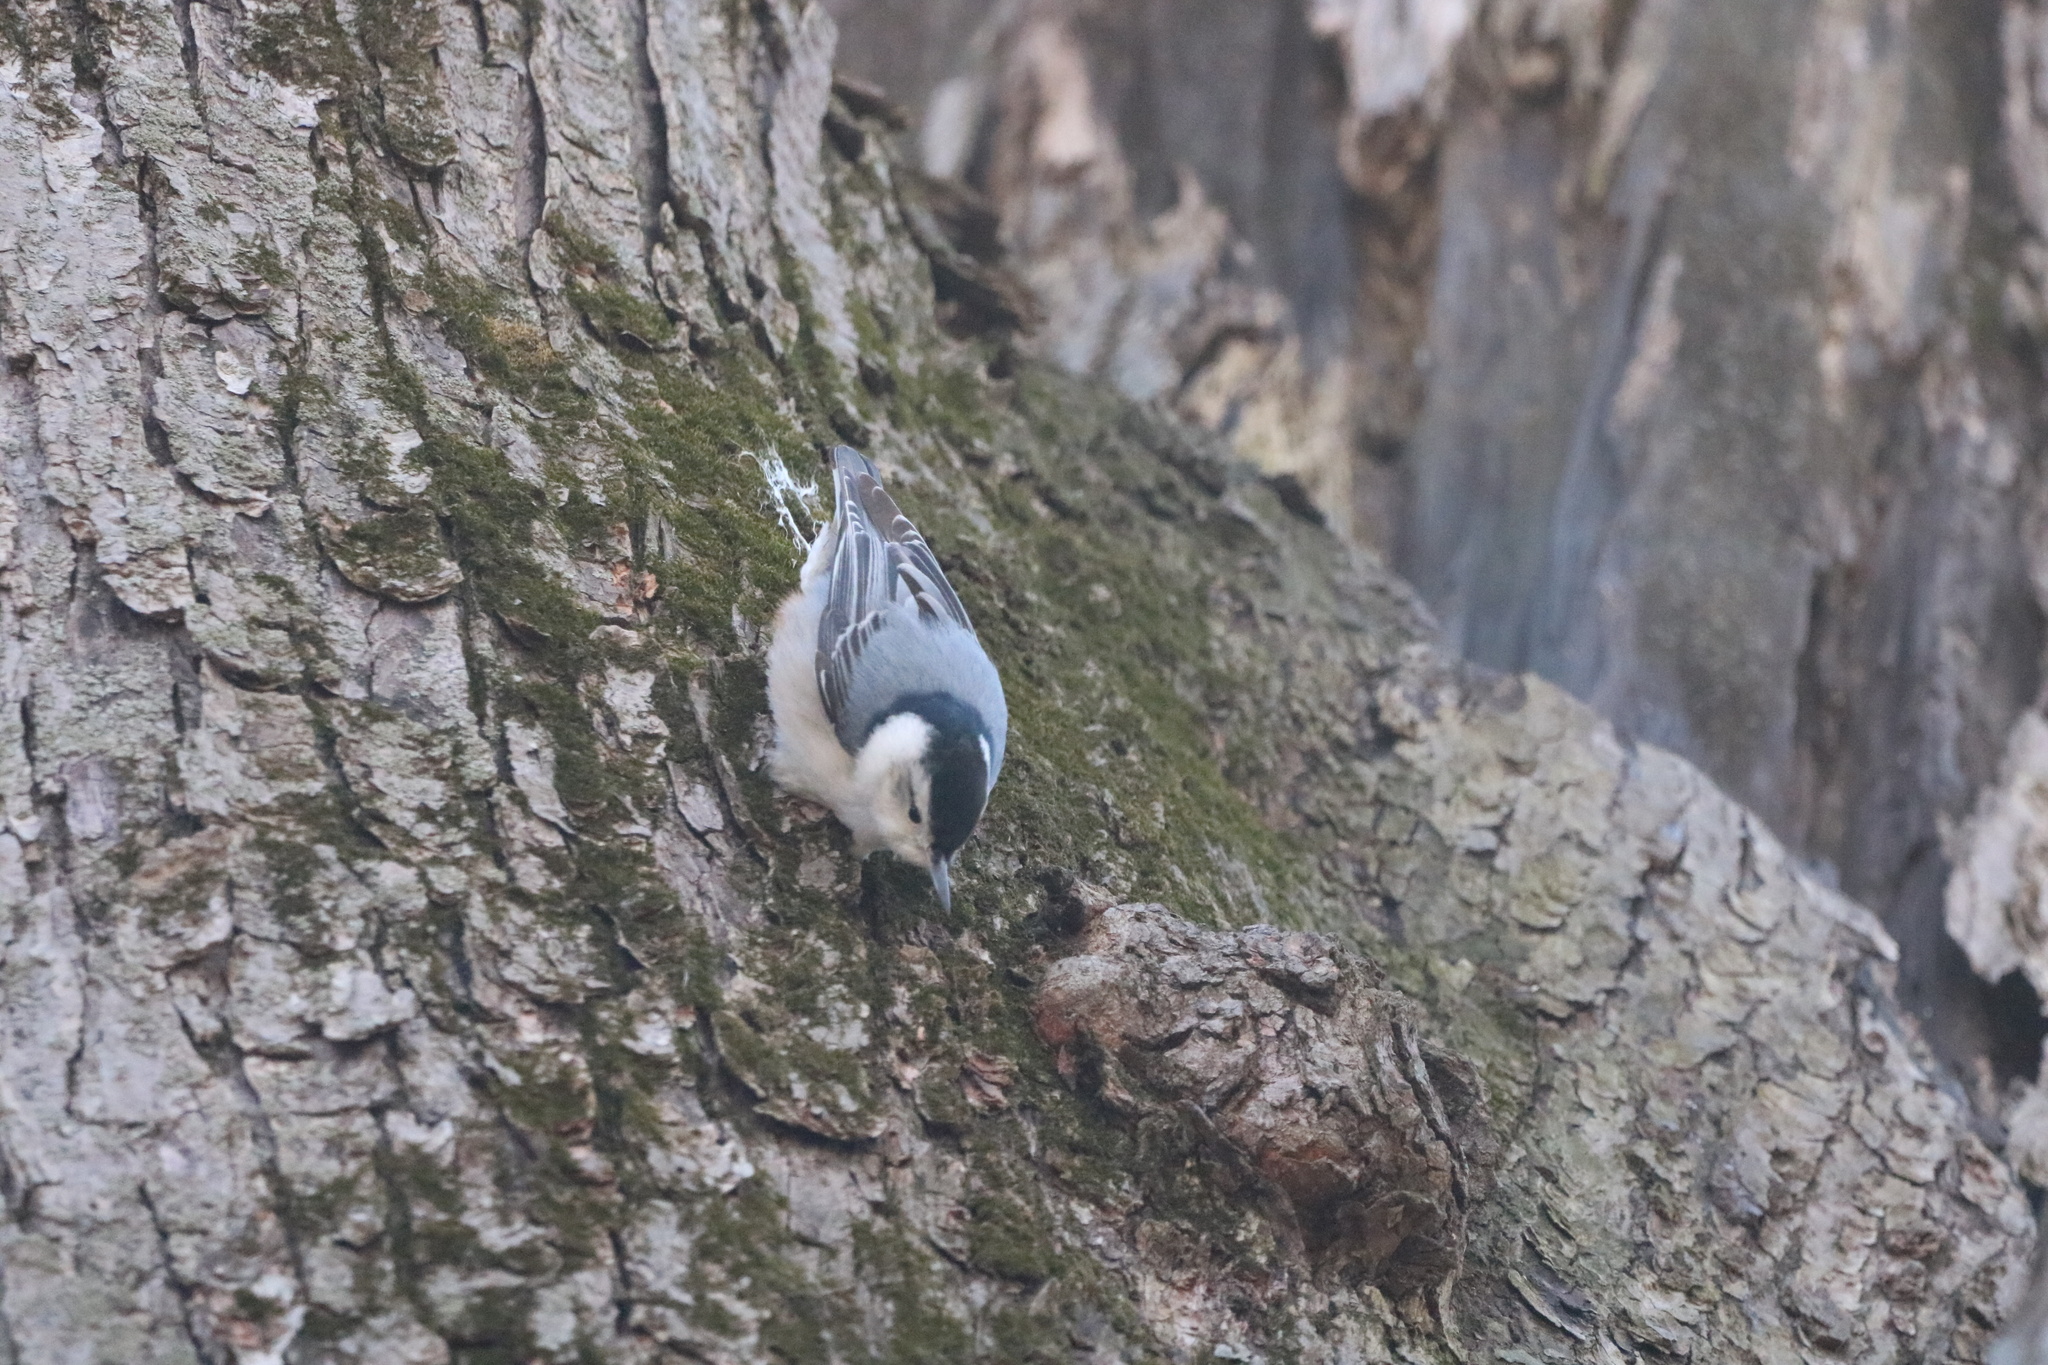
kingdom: Animalia
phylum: Chordata
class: Aves
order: Passeriformes
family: Sittidae
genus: Sitta
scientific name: Sitta carolinensis
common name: White-breasted nuthatch
